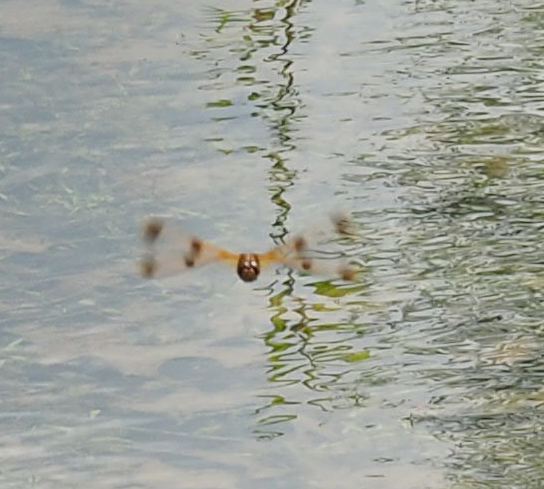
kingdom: Animalia
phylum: Arthropoda
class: Insecta
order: Odonata
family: Libellulidae
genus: Libellula
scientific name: Libellula semifasciata
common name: Painted skimmer
